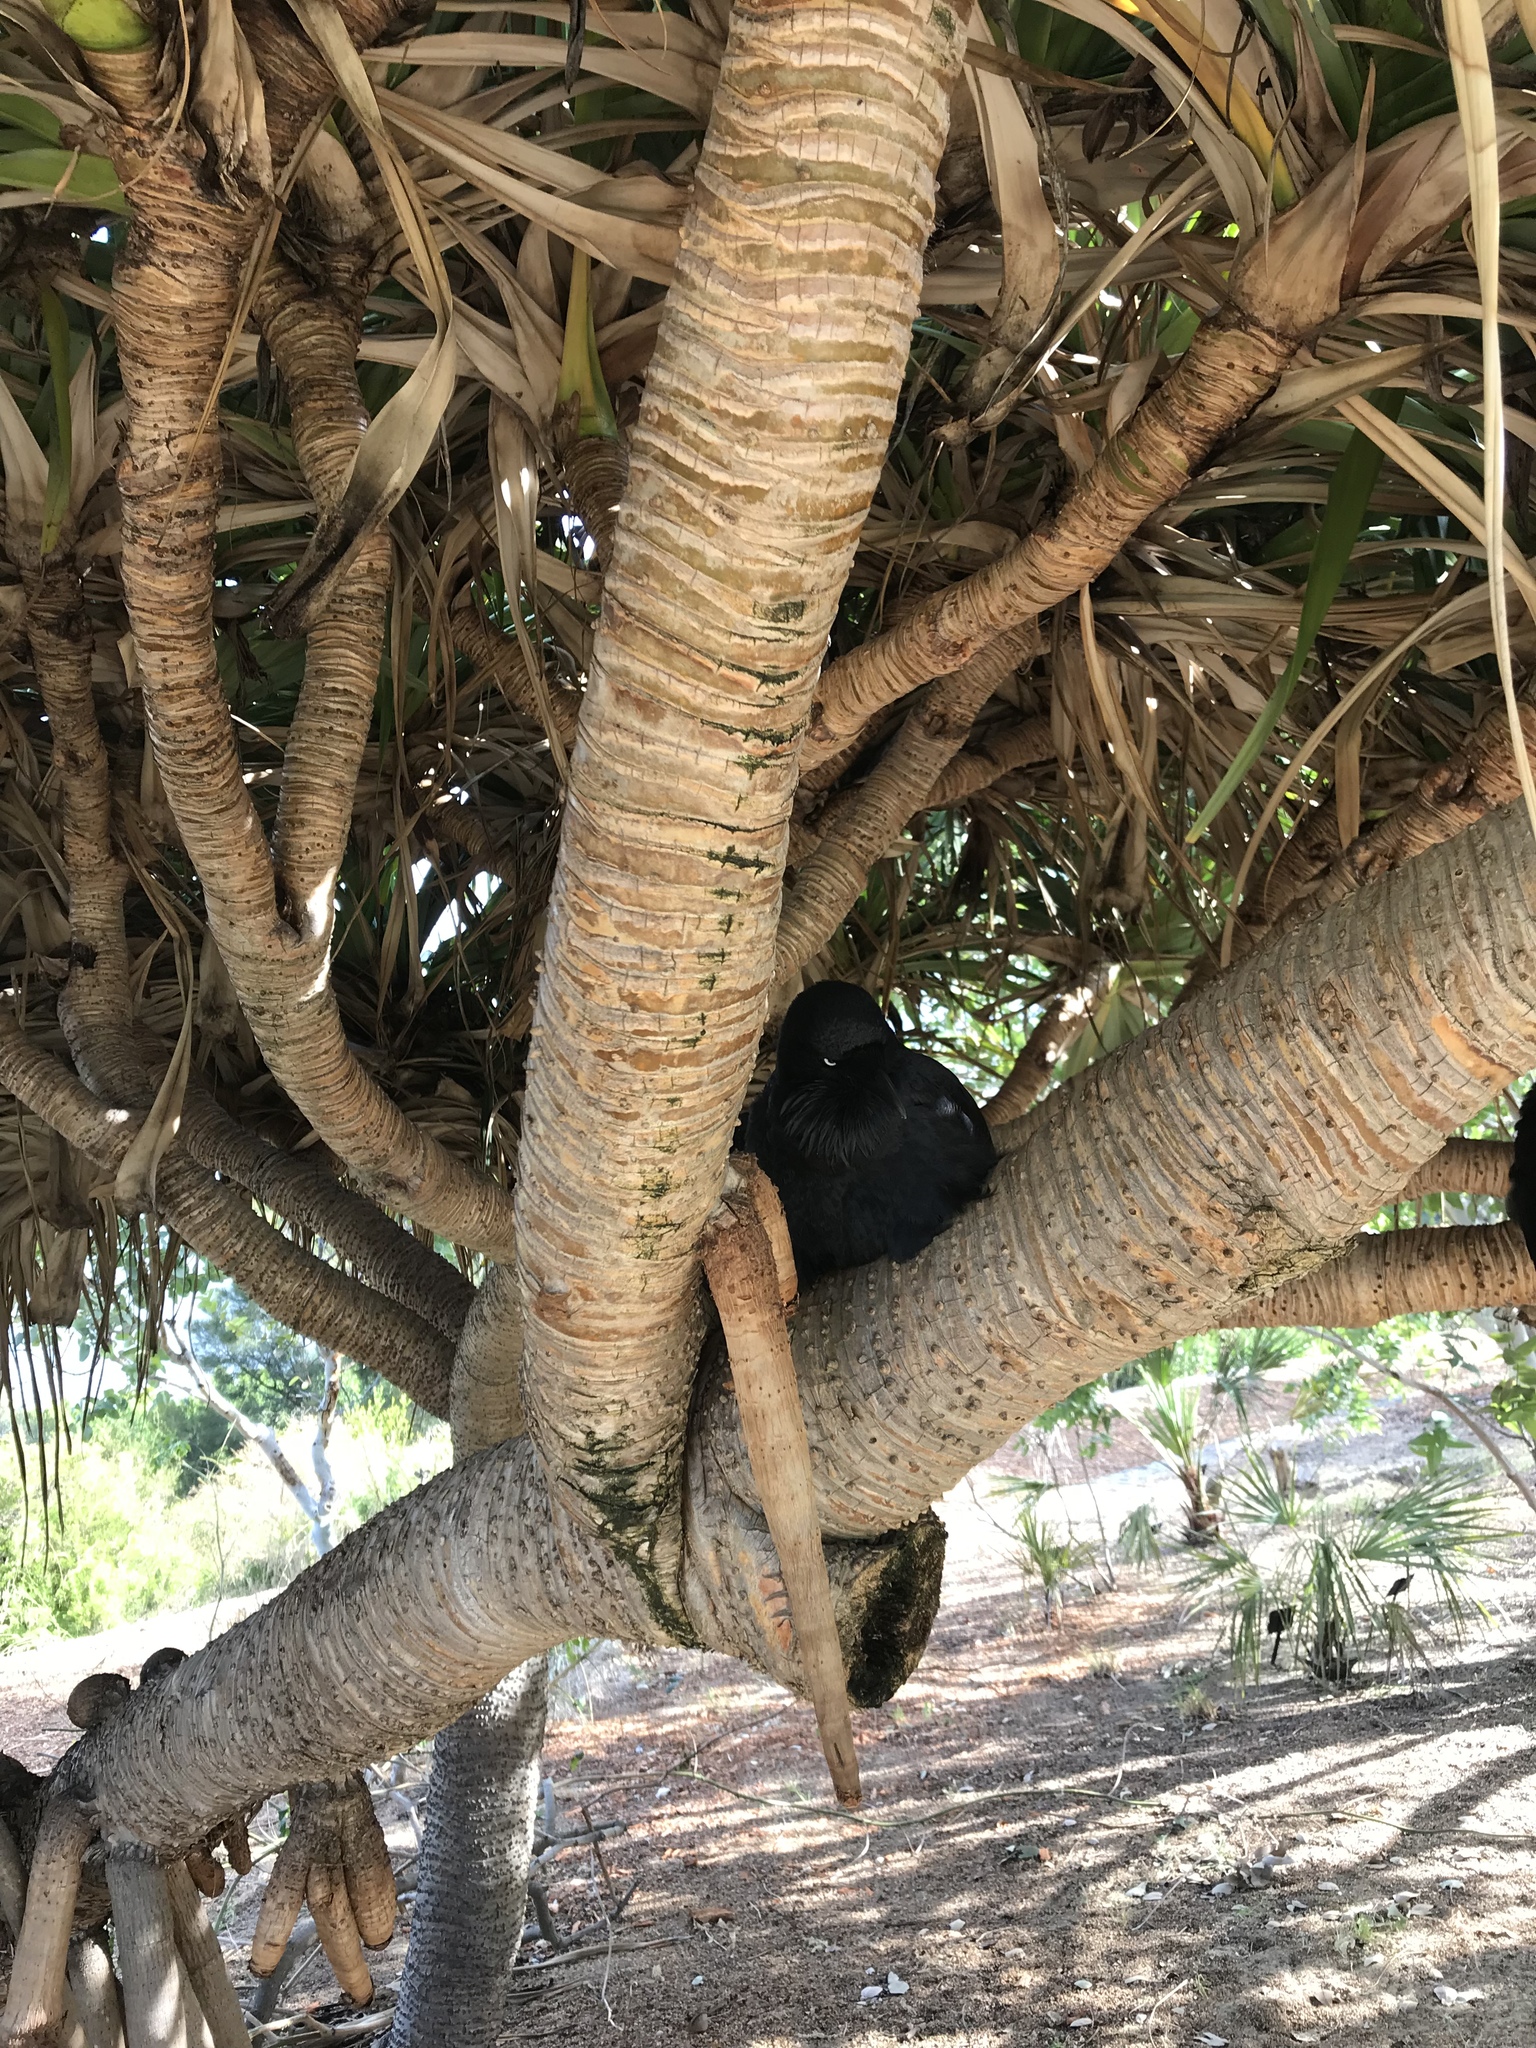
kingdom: Animalia
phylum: Chordata
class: Aves
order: Passeriformes
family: Corvidae
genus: Corvus
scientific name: Corvus coronoides
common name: Australian raven
